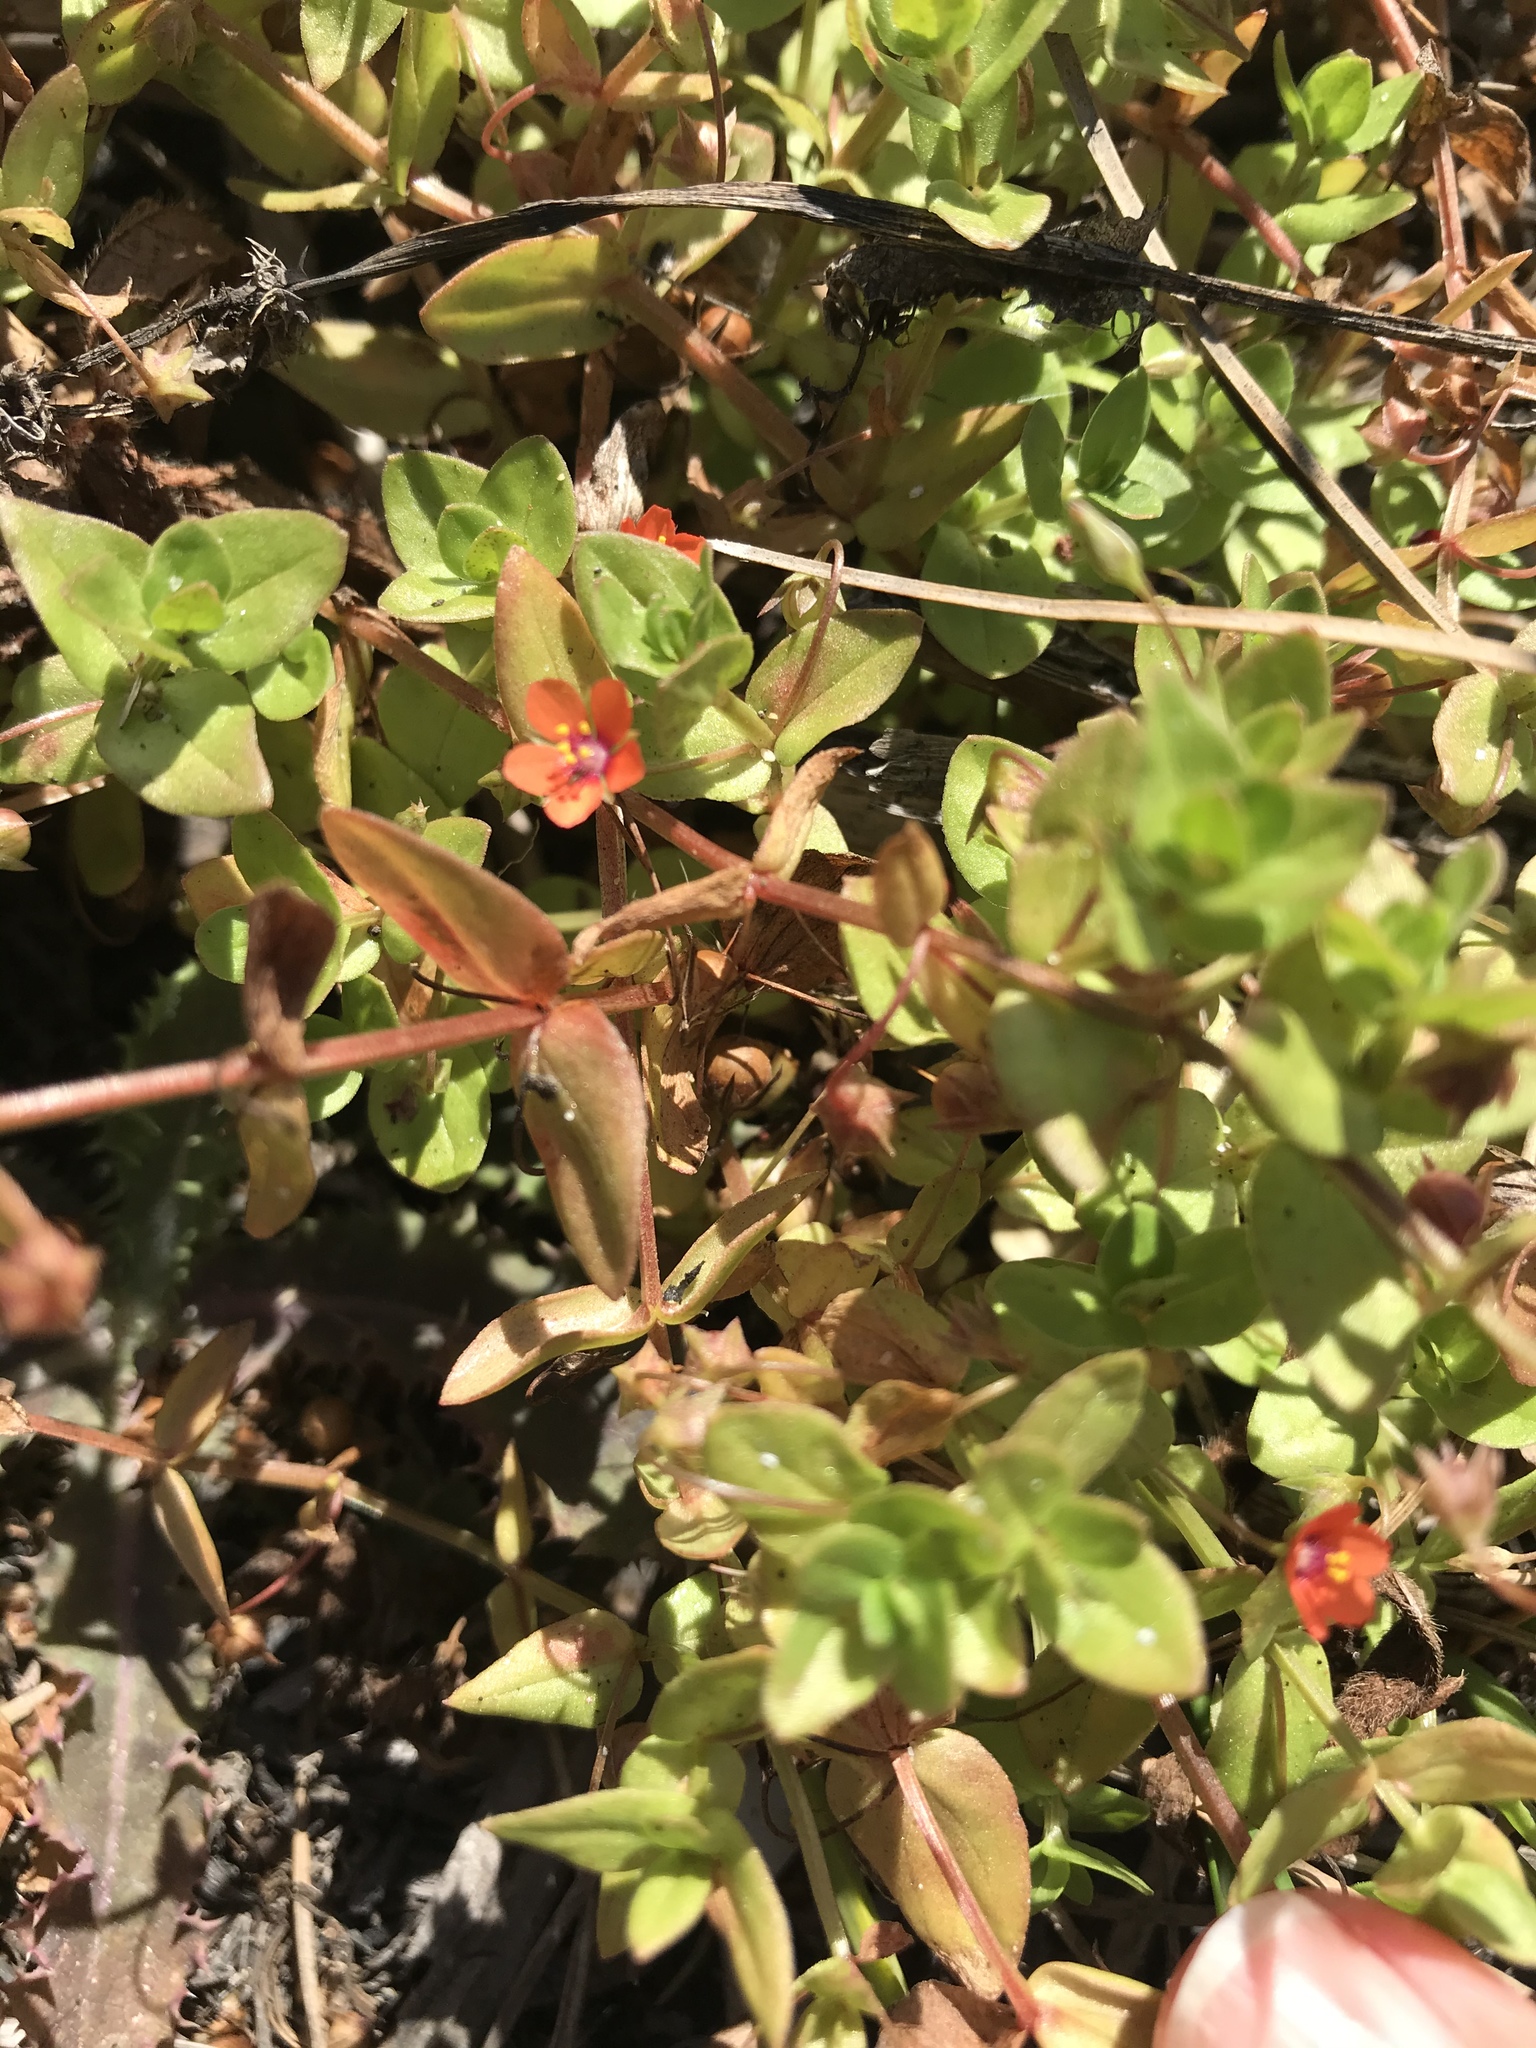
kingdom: Plantae
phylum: Tracheophyta
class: Magnoliopsida
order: Ericales
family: Primulaceae
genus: Lysimachia
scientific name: Lysimachia arvensis
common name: Scarlet pimpernel
